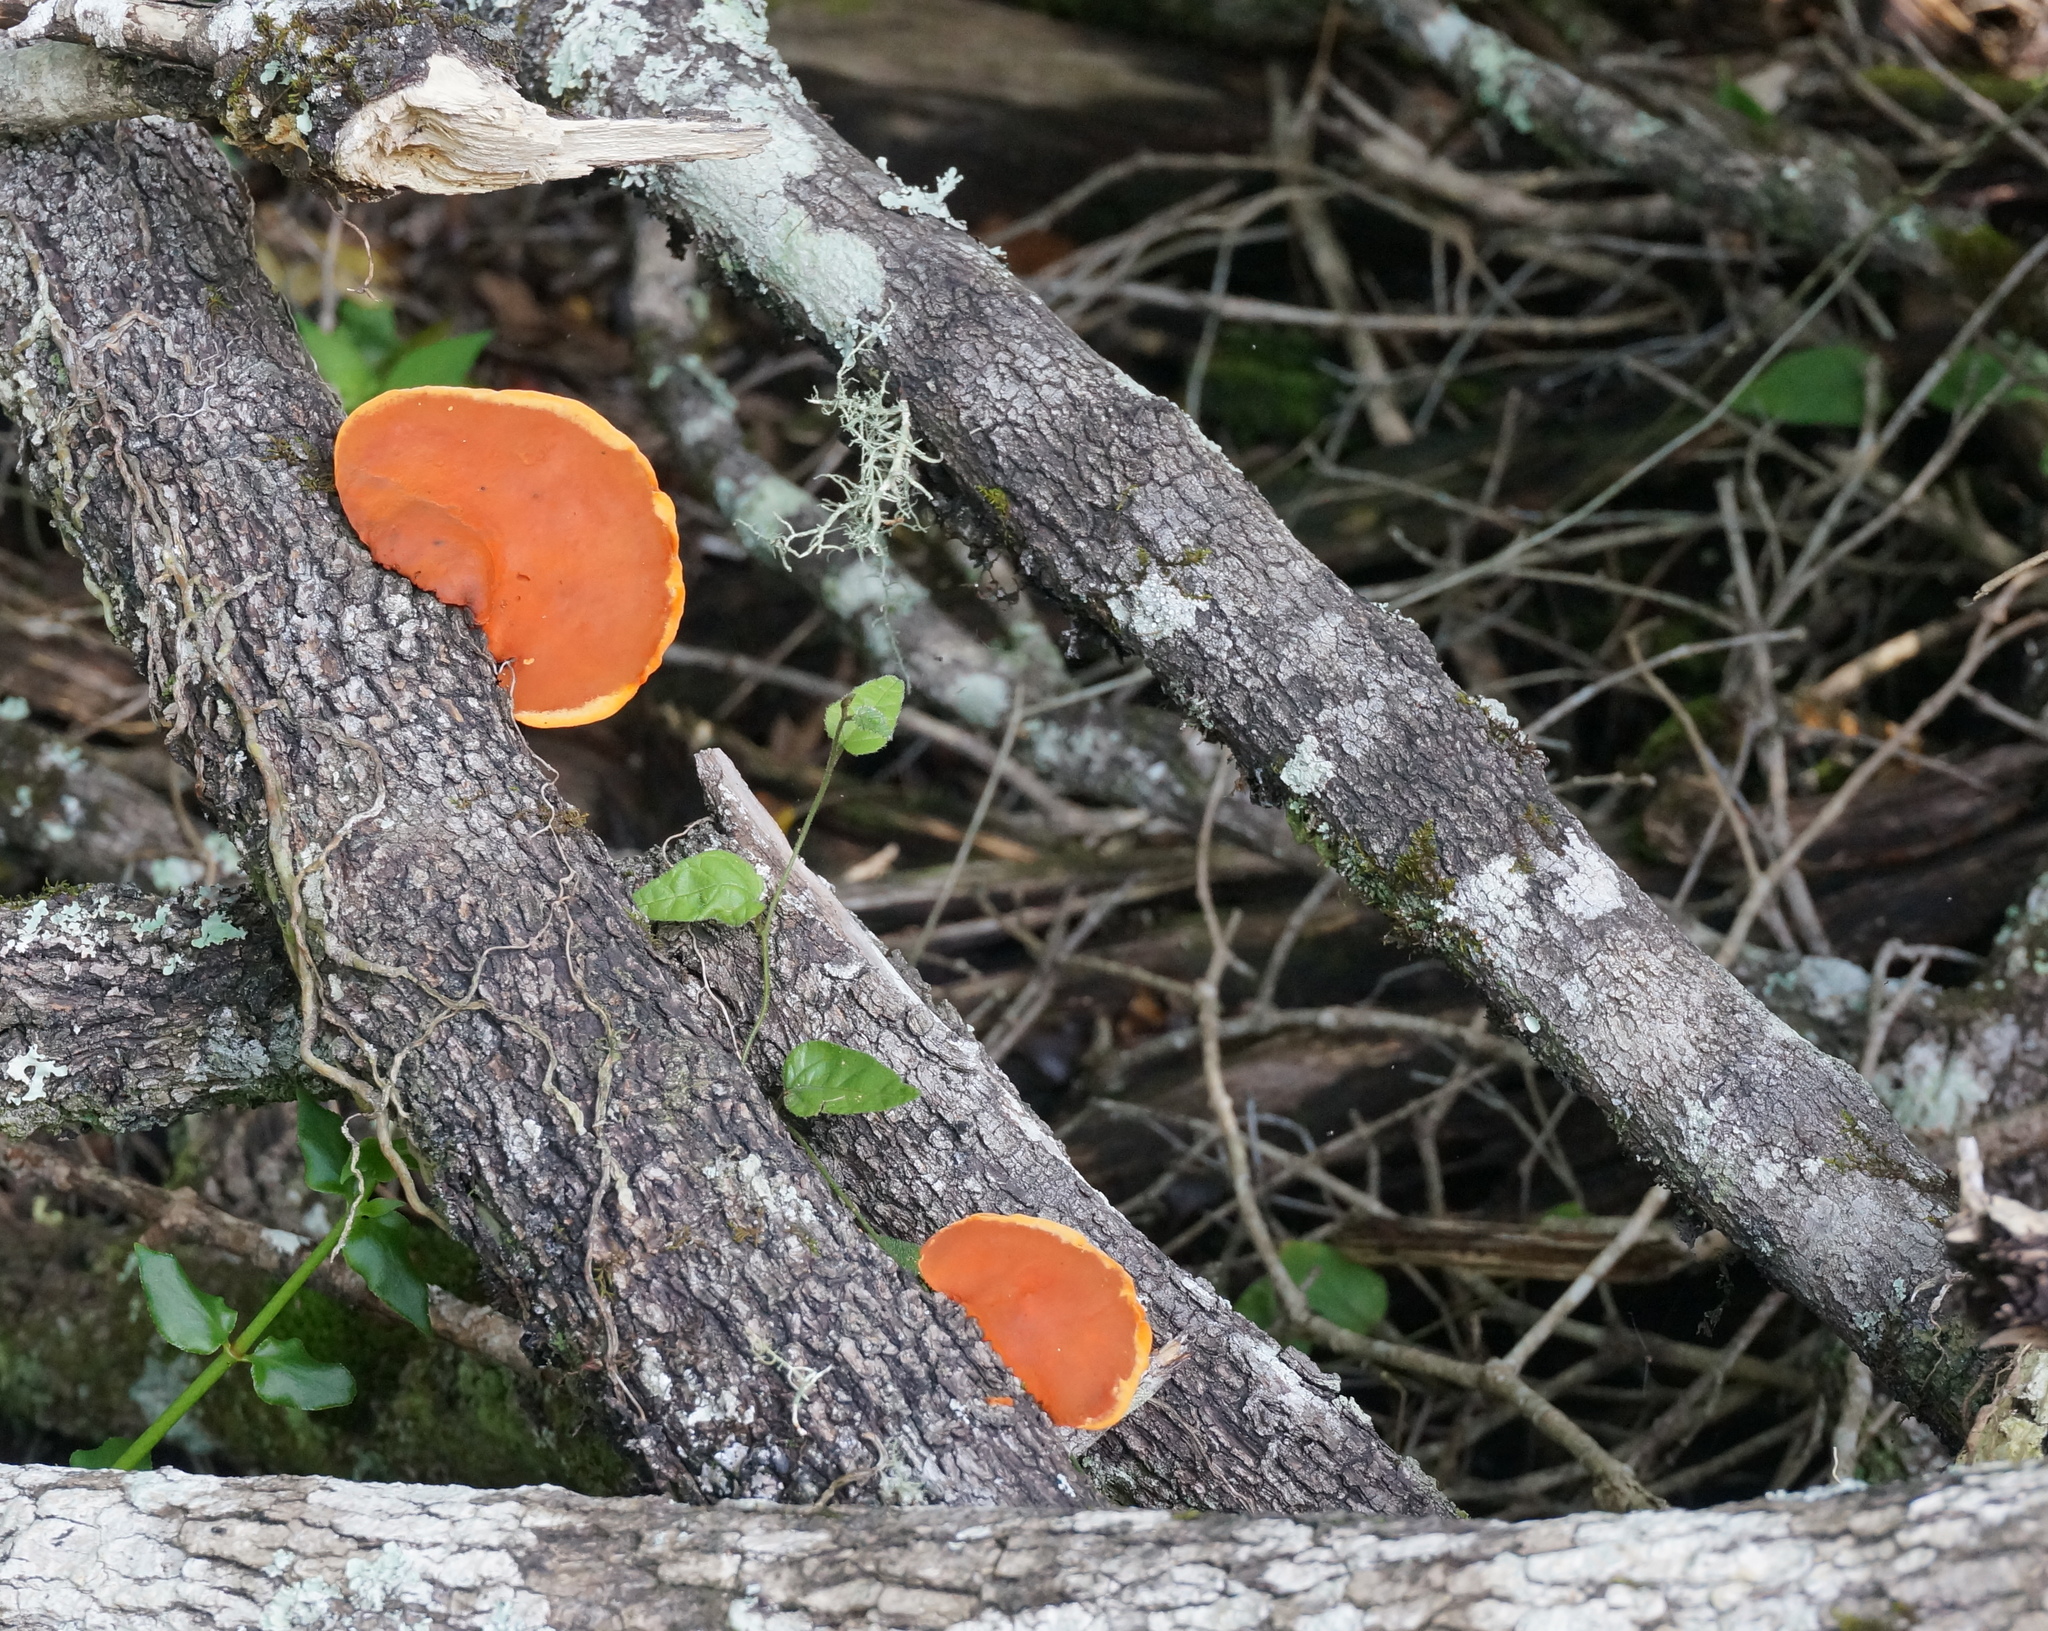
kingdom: Fungi
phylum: Basidiomycota
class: Agaricomycetes
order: Polyporales
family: Polyporaceae
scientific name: Polyporaceae
